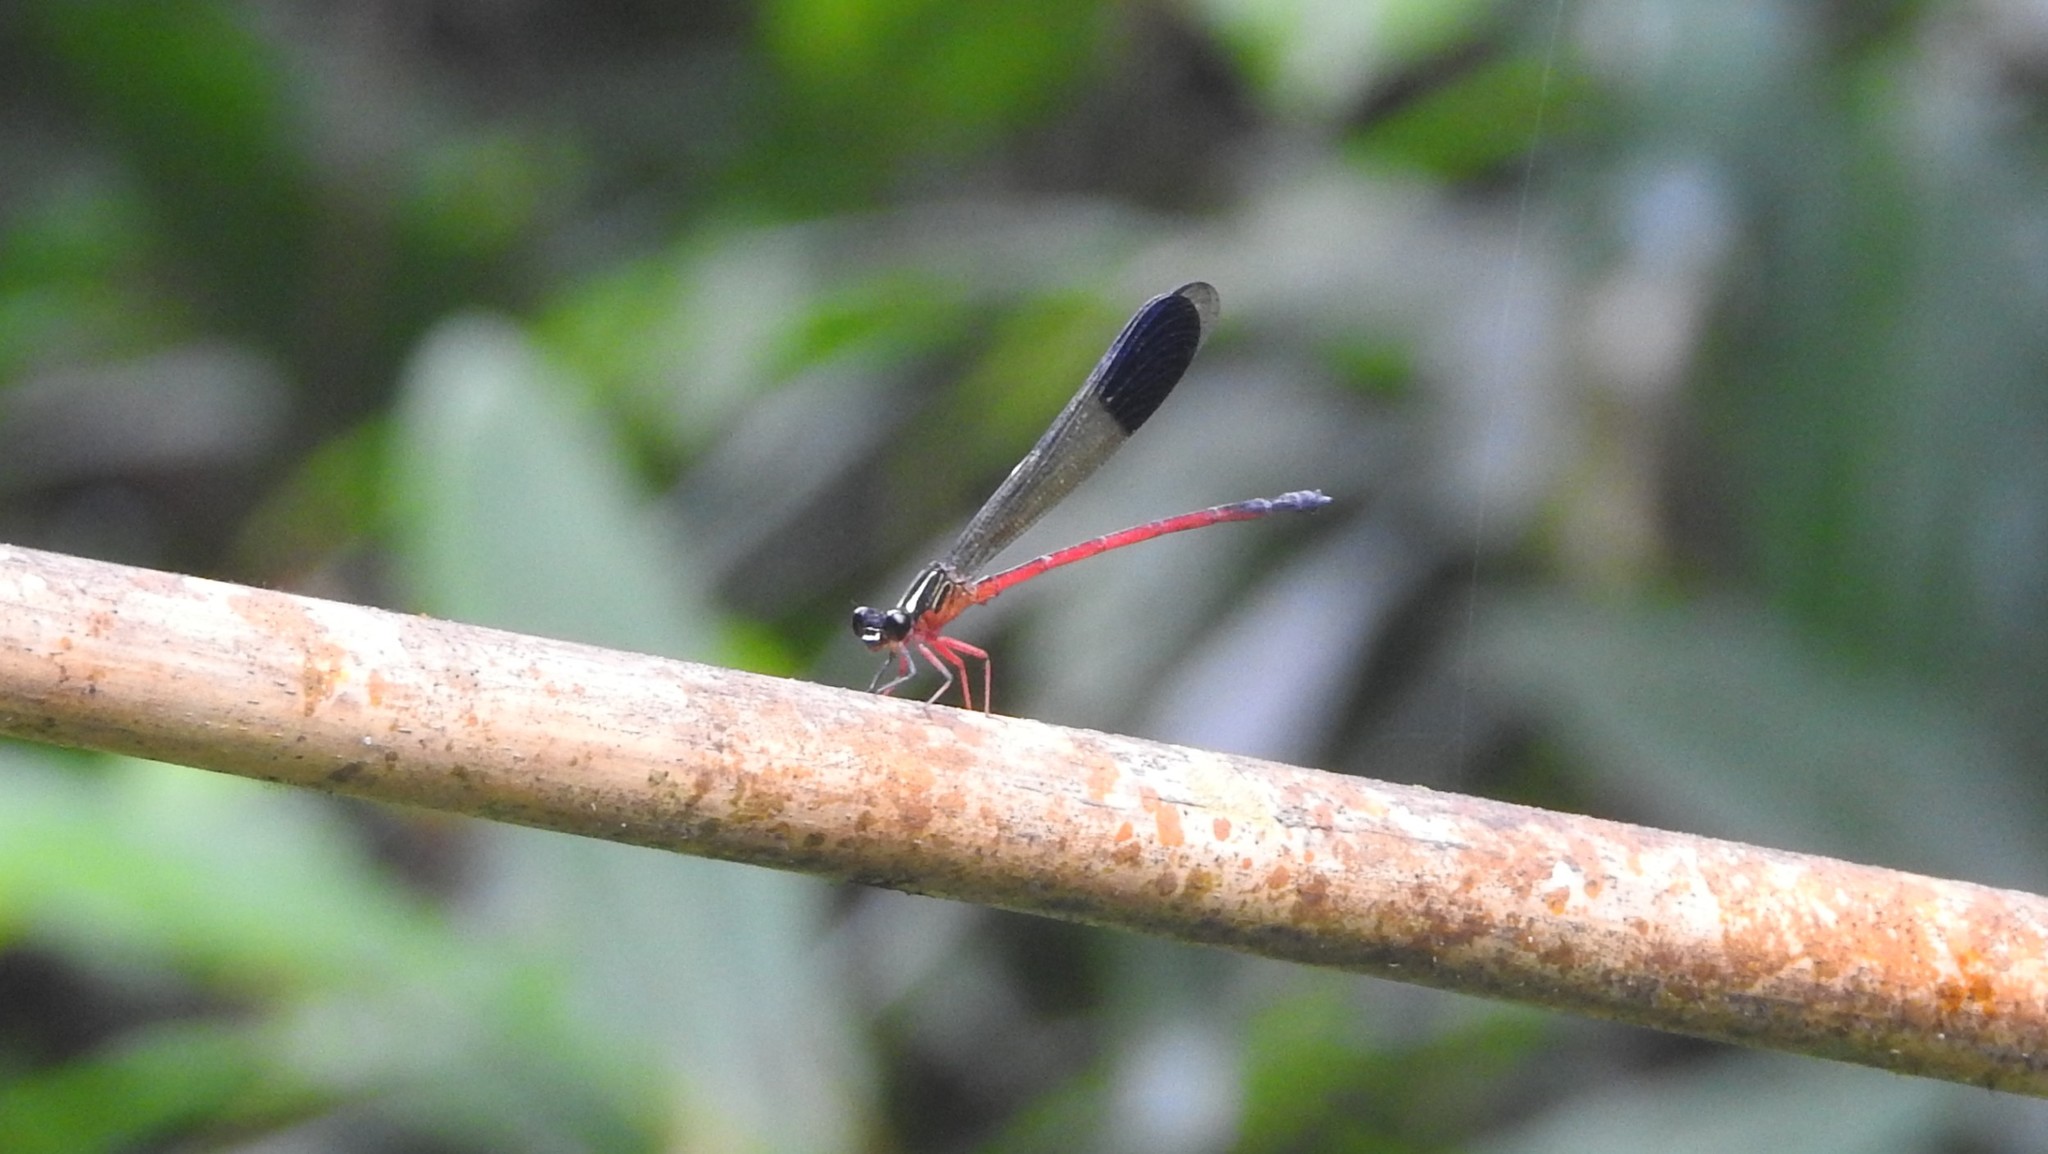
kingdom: Animalia
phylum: Arthropoda
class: Insecta
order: Odonata
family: Euphaeidae
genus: Euphaea
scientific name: Euphaea fraseri
